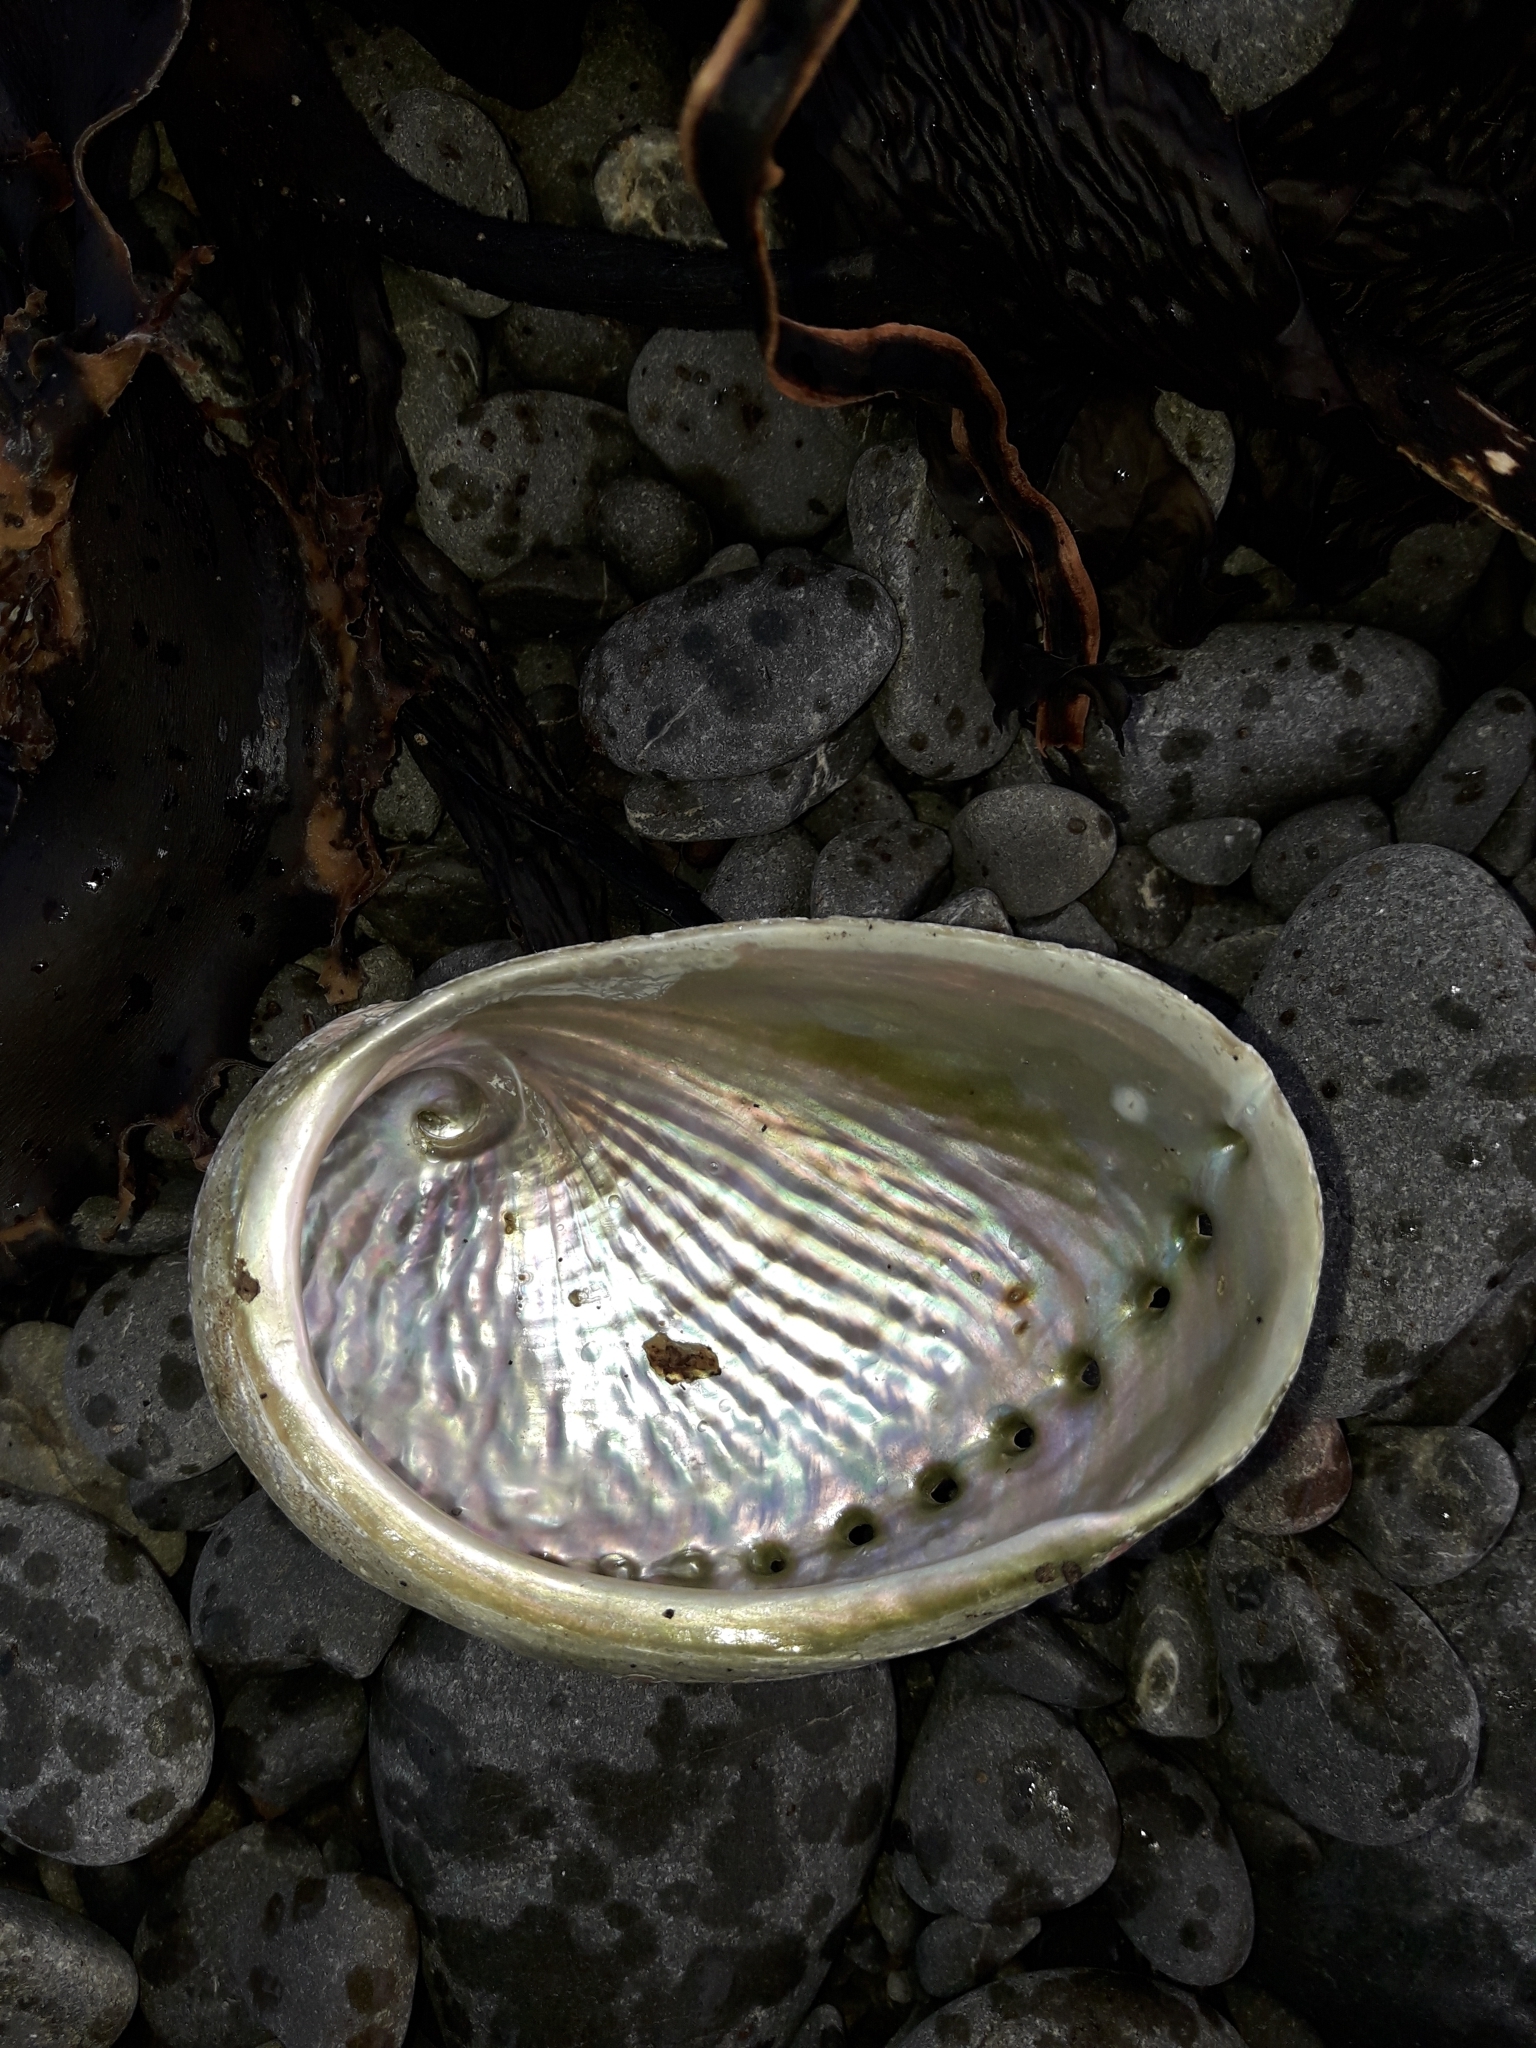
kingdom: Animalia
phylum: Mollusca
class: Gastropoda
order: Lepetellida
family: Haliotidae
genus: Haliotis
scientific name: Haliotis australis
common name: Silver abalone
